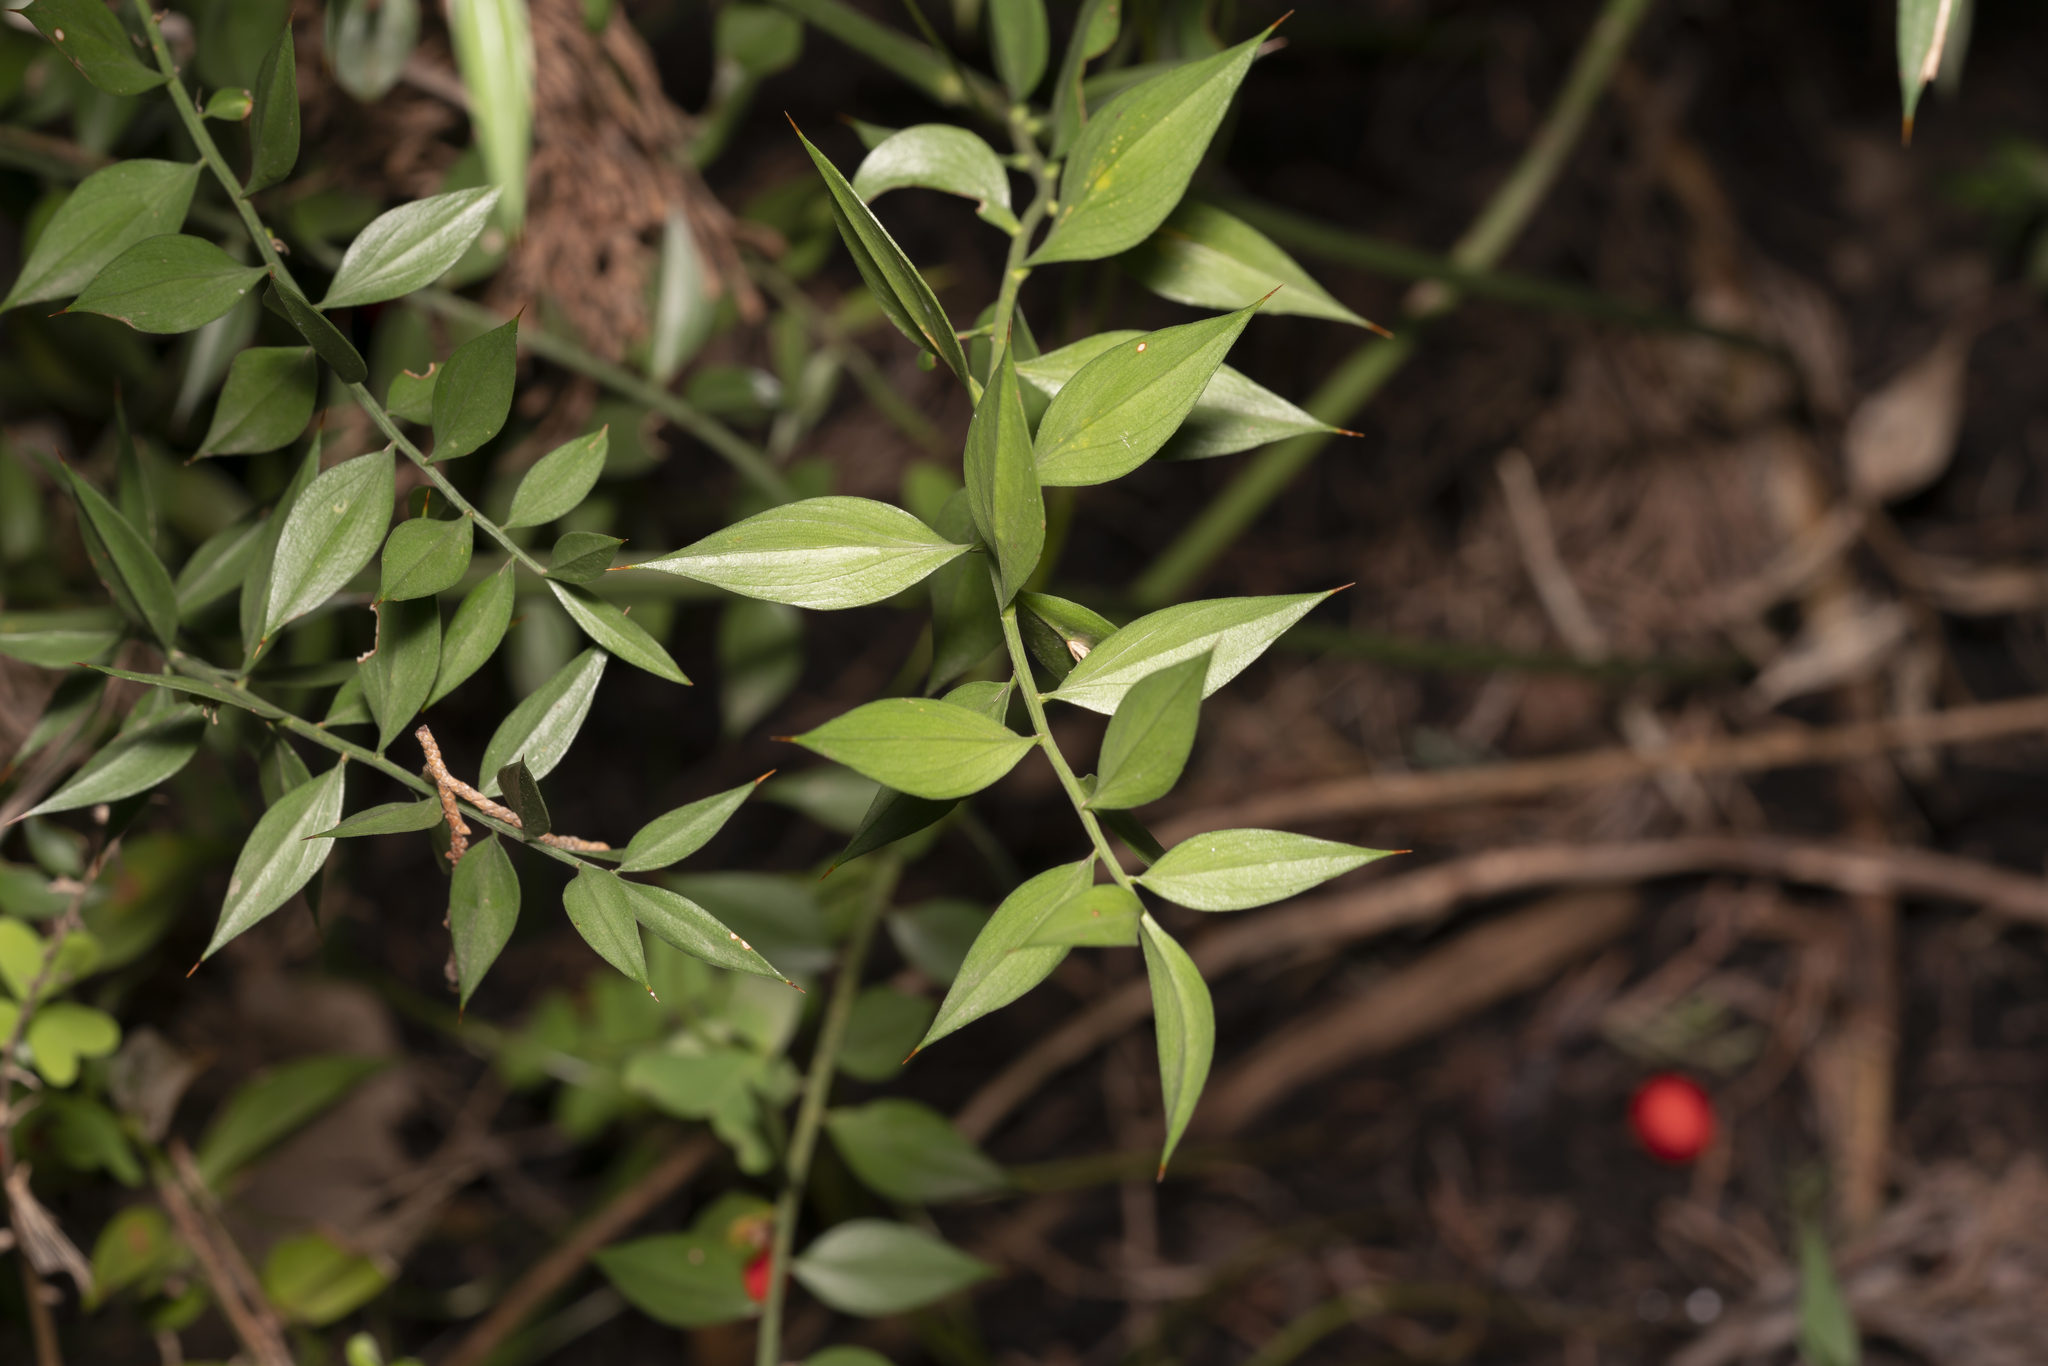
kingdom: Plantae
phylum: Tracheophyta
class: Liliopsida
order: Asparagales
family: Asparagaceae
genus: Ruscus
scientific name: Ruscus aculeatus
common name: Butcher's-broom
